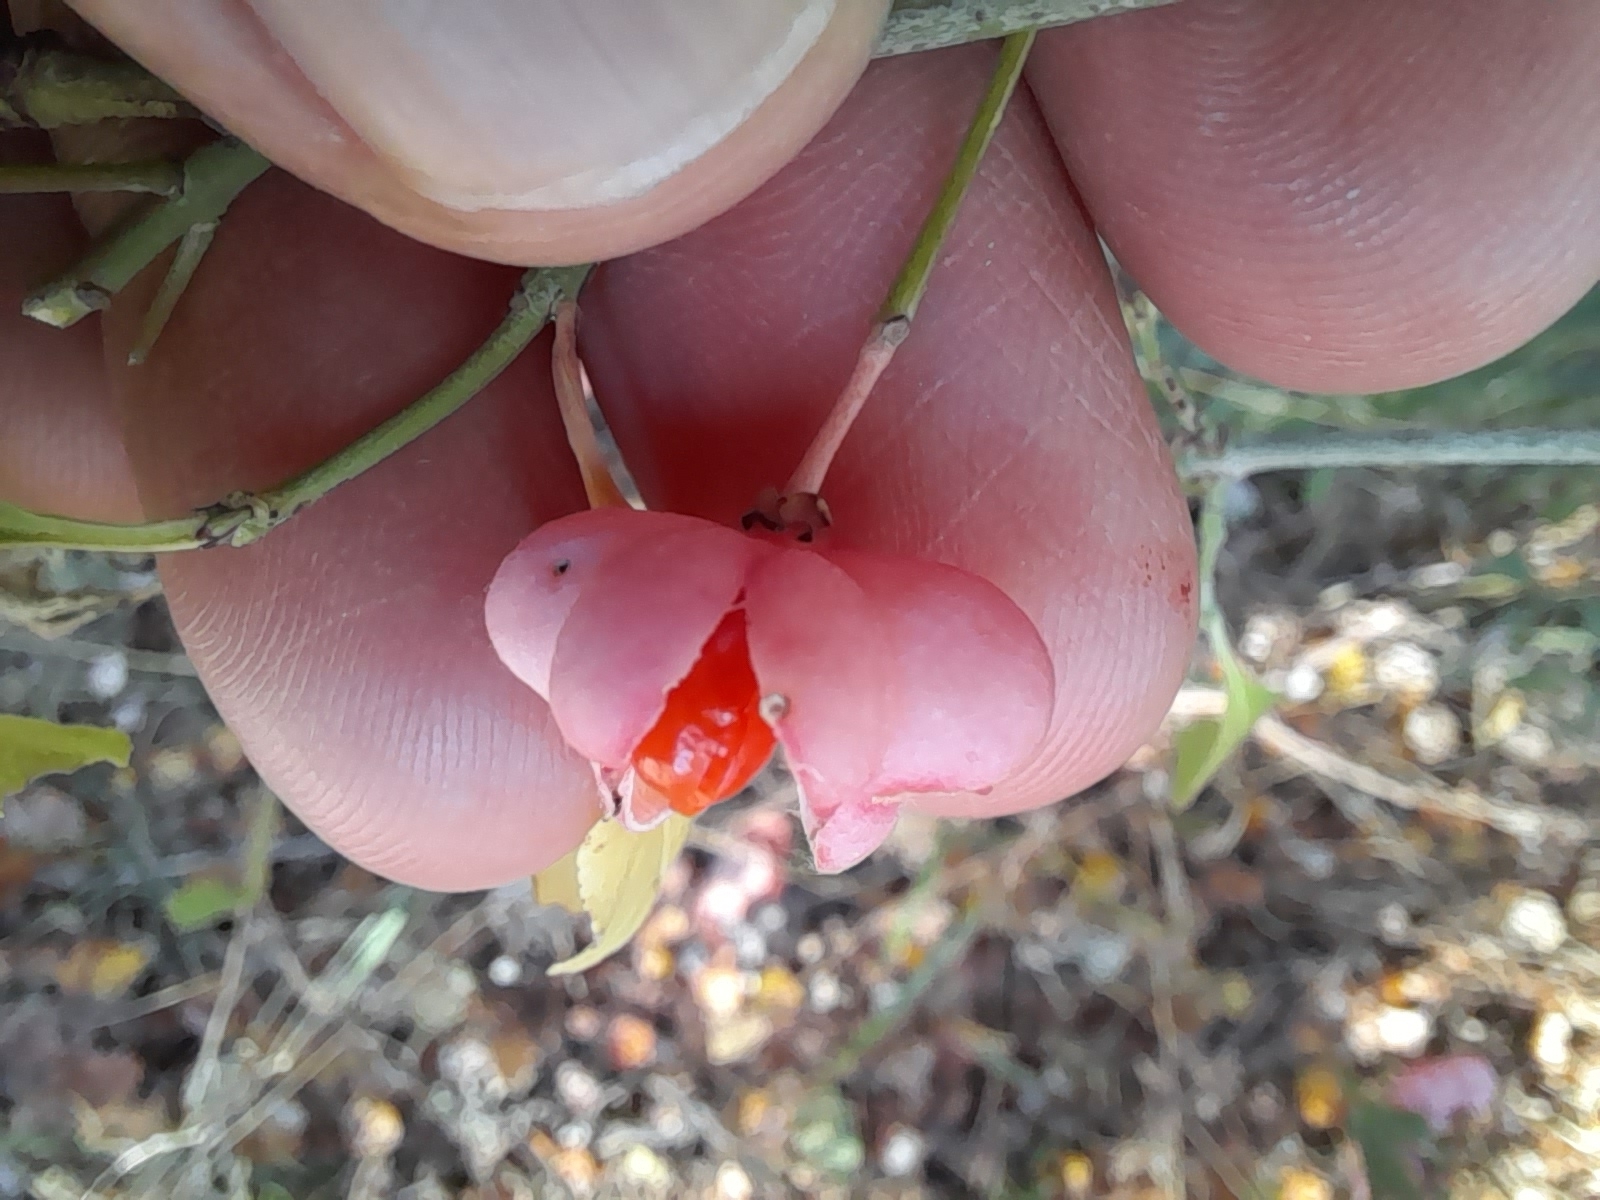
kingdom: Plantae
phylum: Tracheophyta
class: Magnoliopsida
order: Celastrales
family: Celastraceae
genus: Euonymus
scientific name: Euonymus europaeus
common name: Spindle
